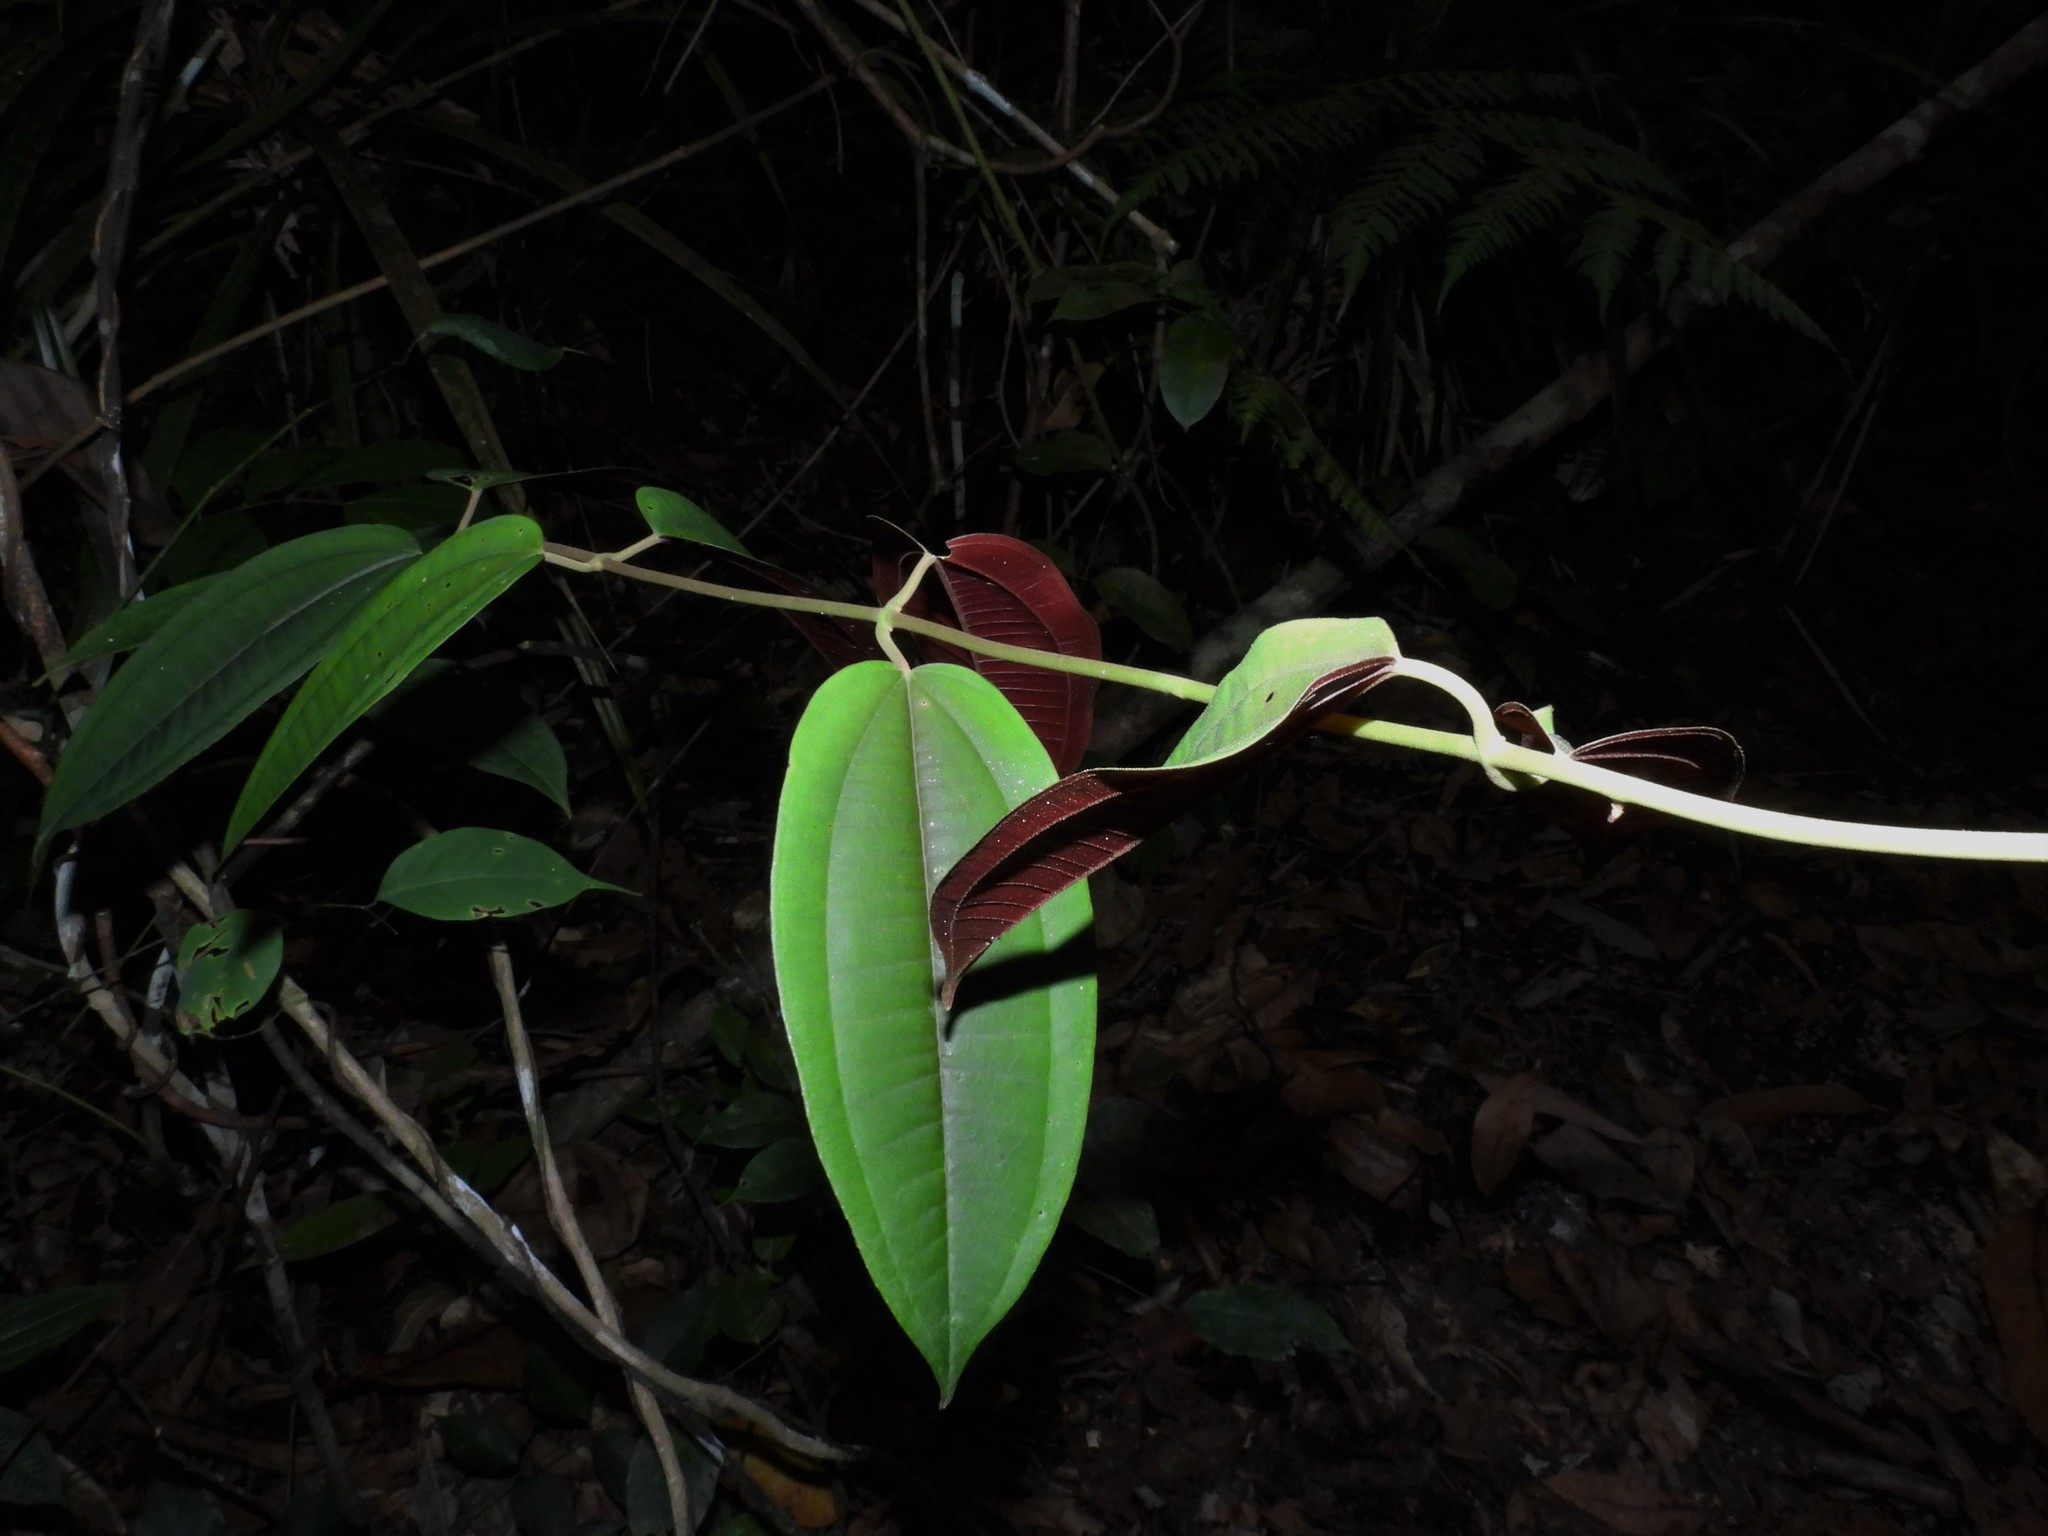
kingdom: Plantae
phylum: Tracheophyta
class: Magnoliopsida
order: Myrtales
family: Melastomataceae
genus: Dissochaeta
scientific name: Dissochaeta gracilis
